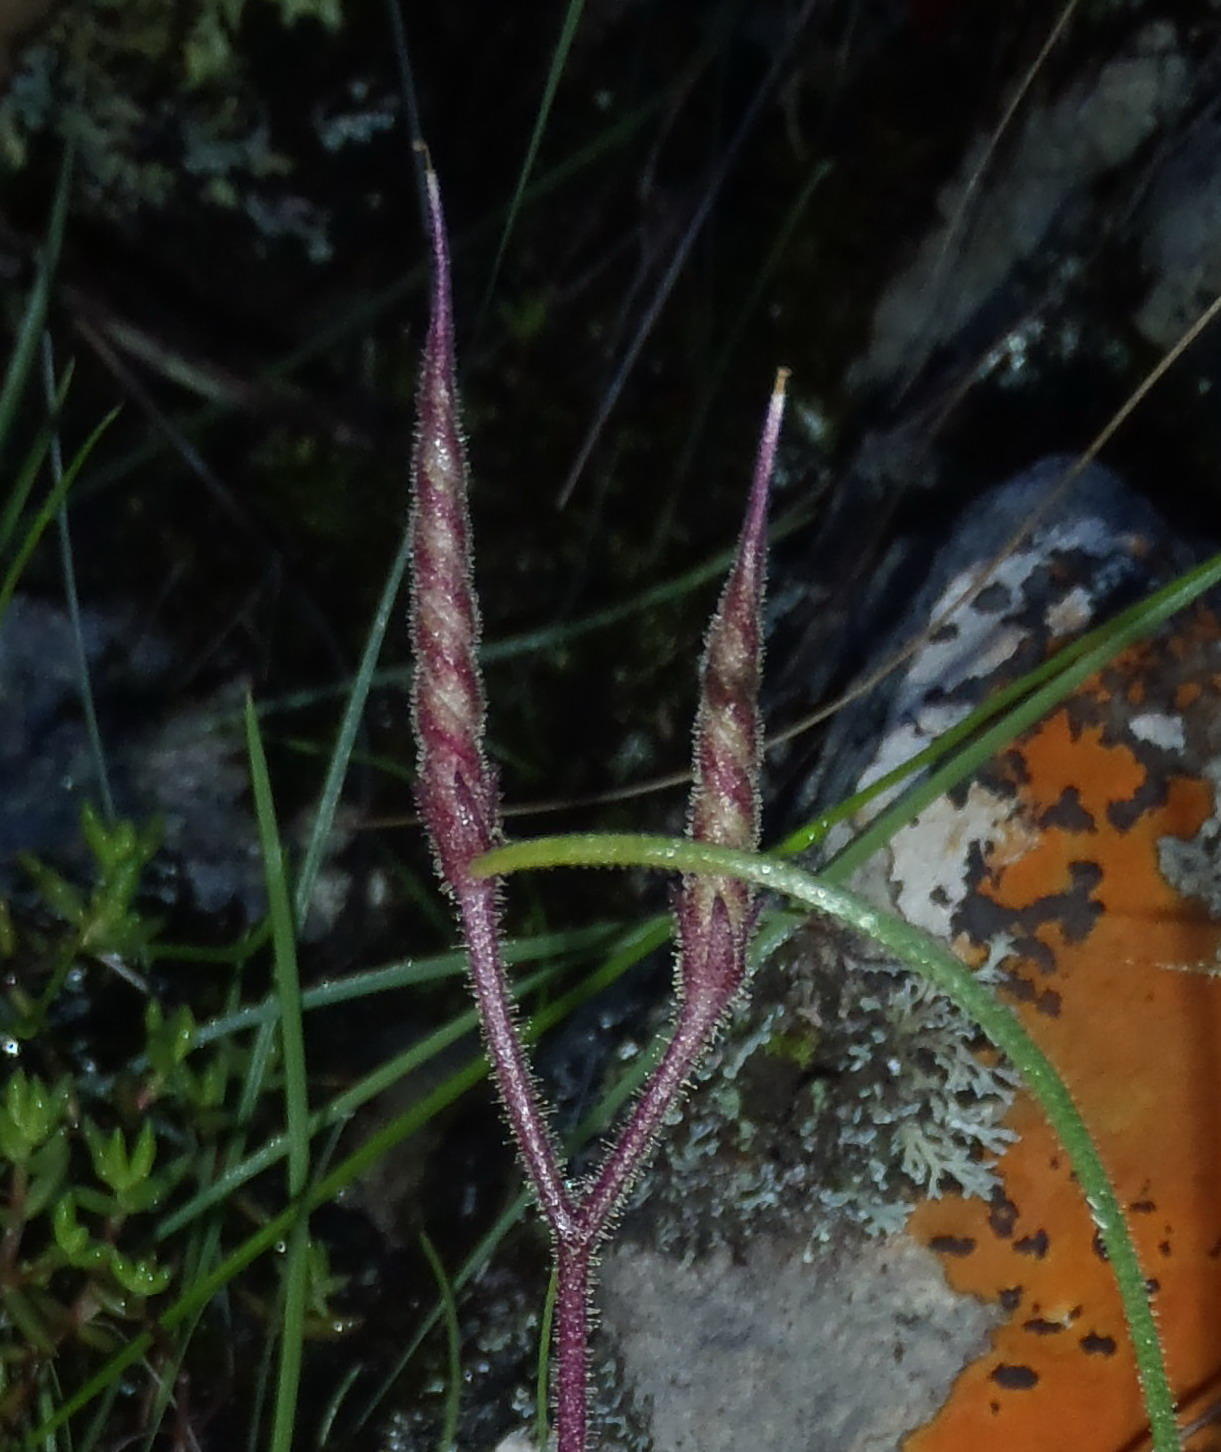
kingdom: Plantae
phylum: Tracheophyta
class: Magnoliopsida
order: Lamiales
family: Gesneriaceae
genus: Streptocarpus
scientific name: Streptocarpus meyeri
